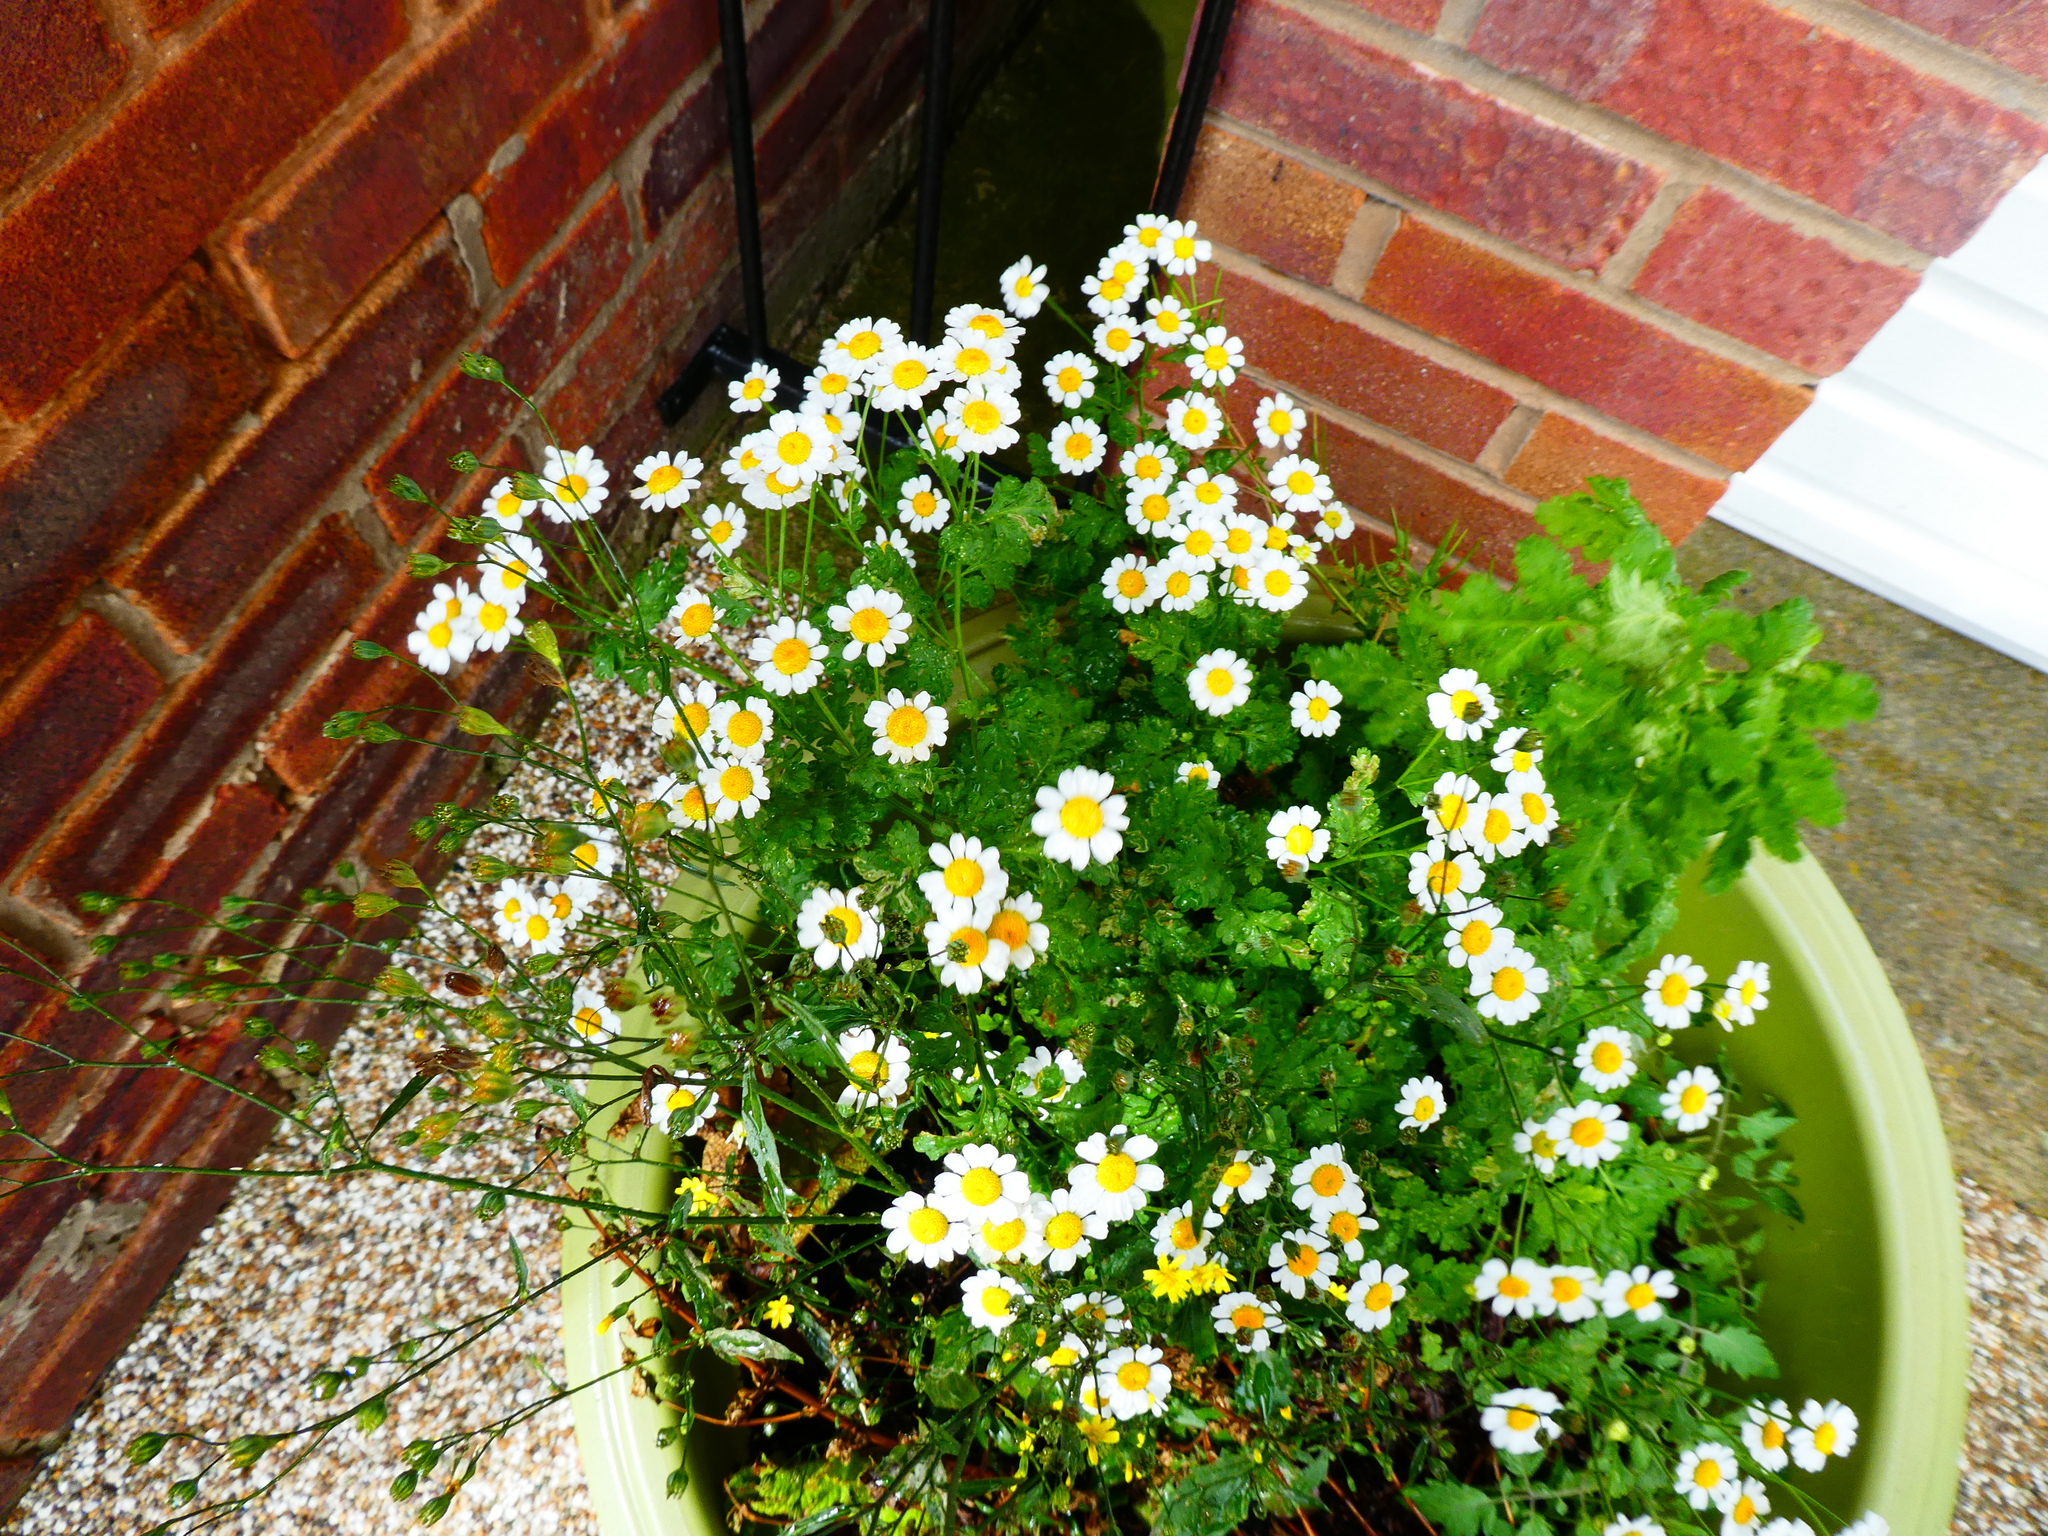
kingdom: Plantae
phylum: Tracheophyta
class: Magnoliopsida
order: Asterales
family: Asteraceae
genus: Tanacetum
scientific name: Tanacetum parthenium
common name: Feverfew
